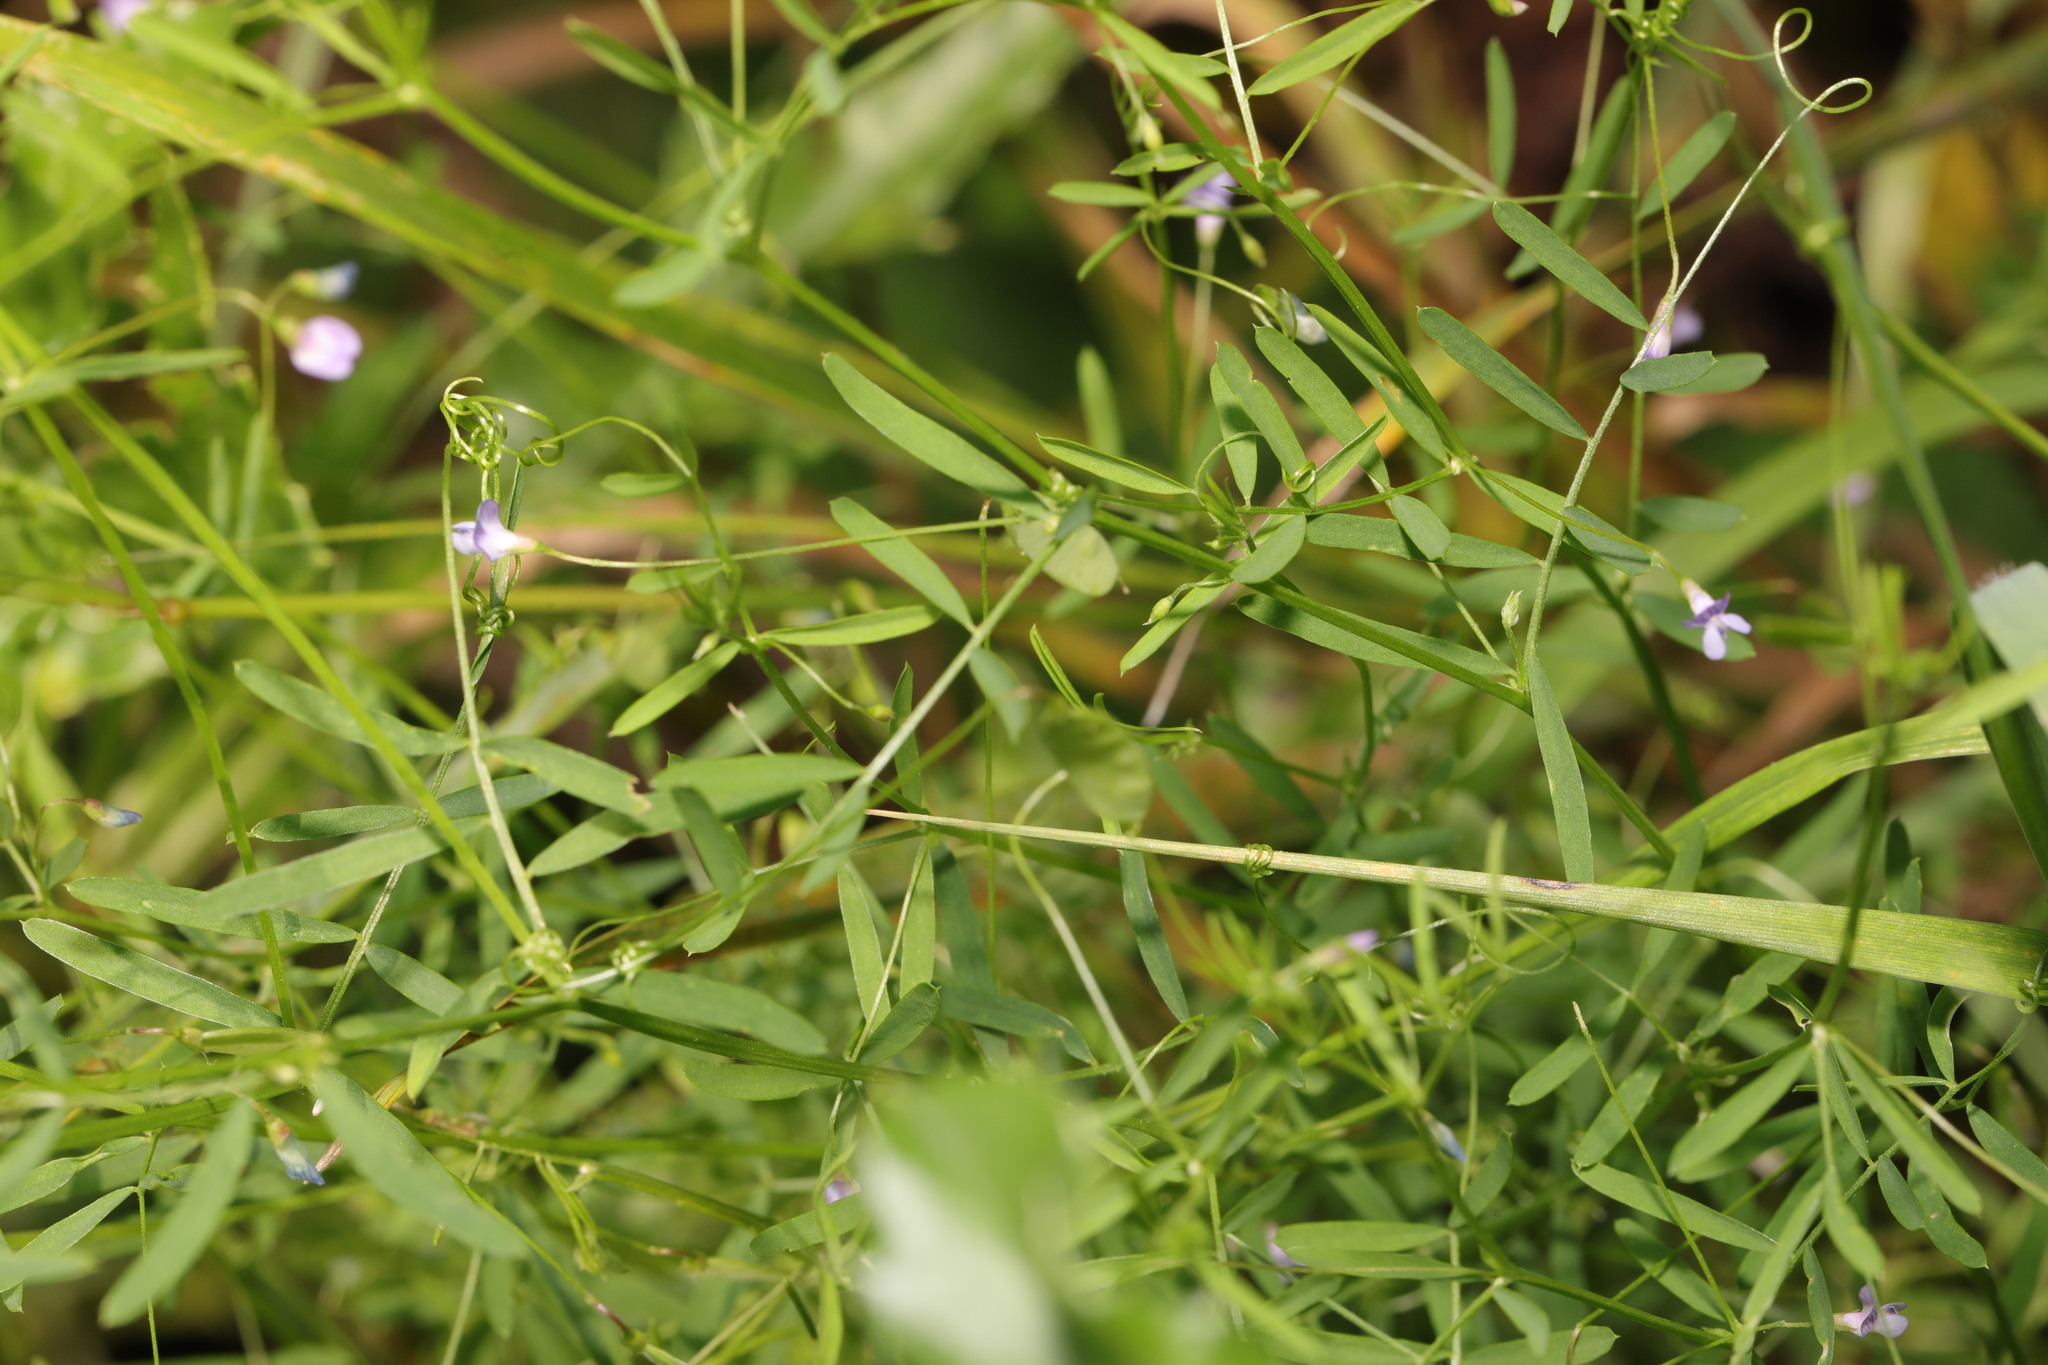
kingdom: Plantae
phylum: Tracheophyta
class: Magnoliopsida
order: Fabales
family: Fabaceae
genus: Vicia
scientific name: Vicia tetrasperma
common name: Smooth tare
